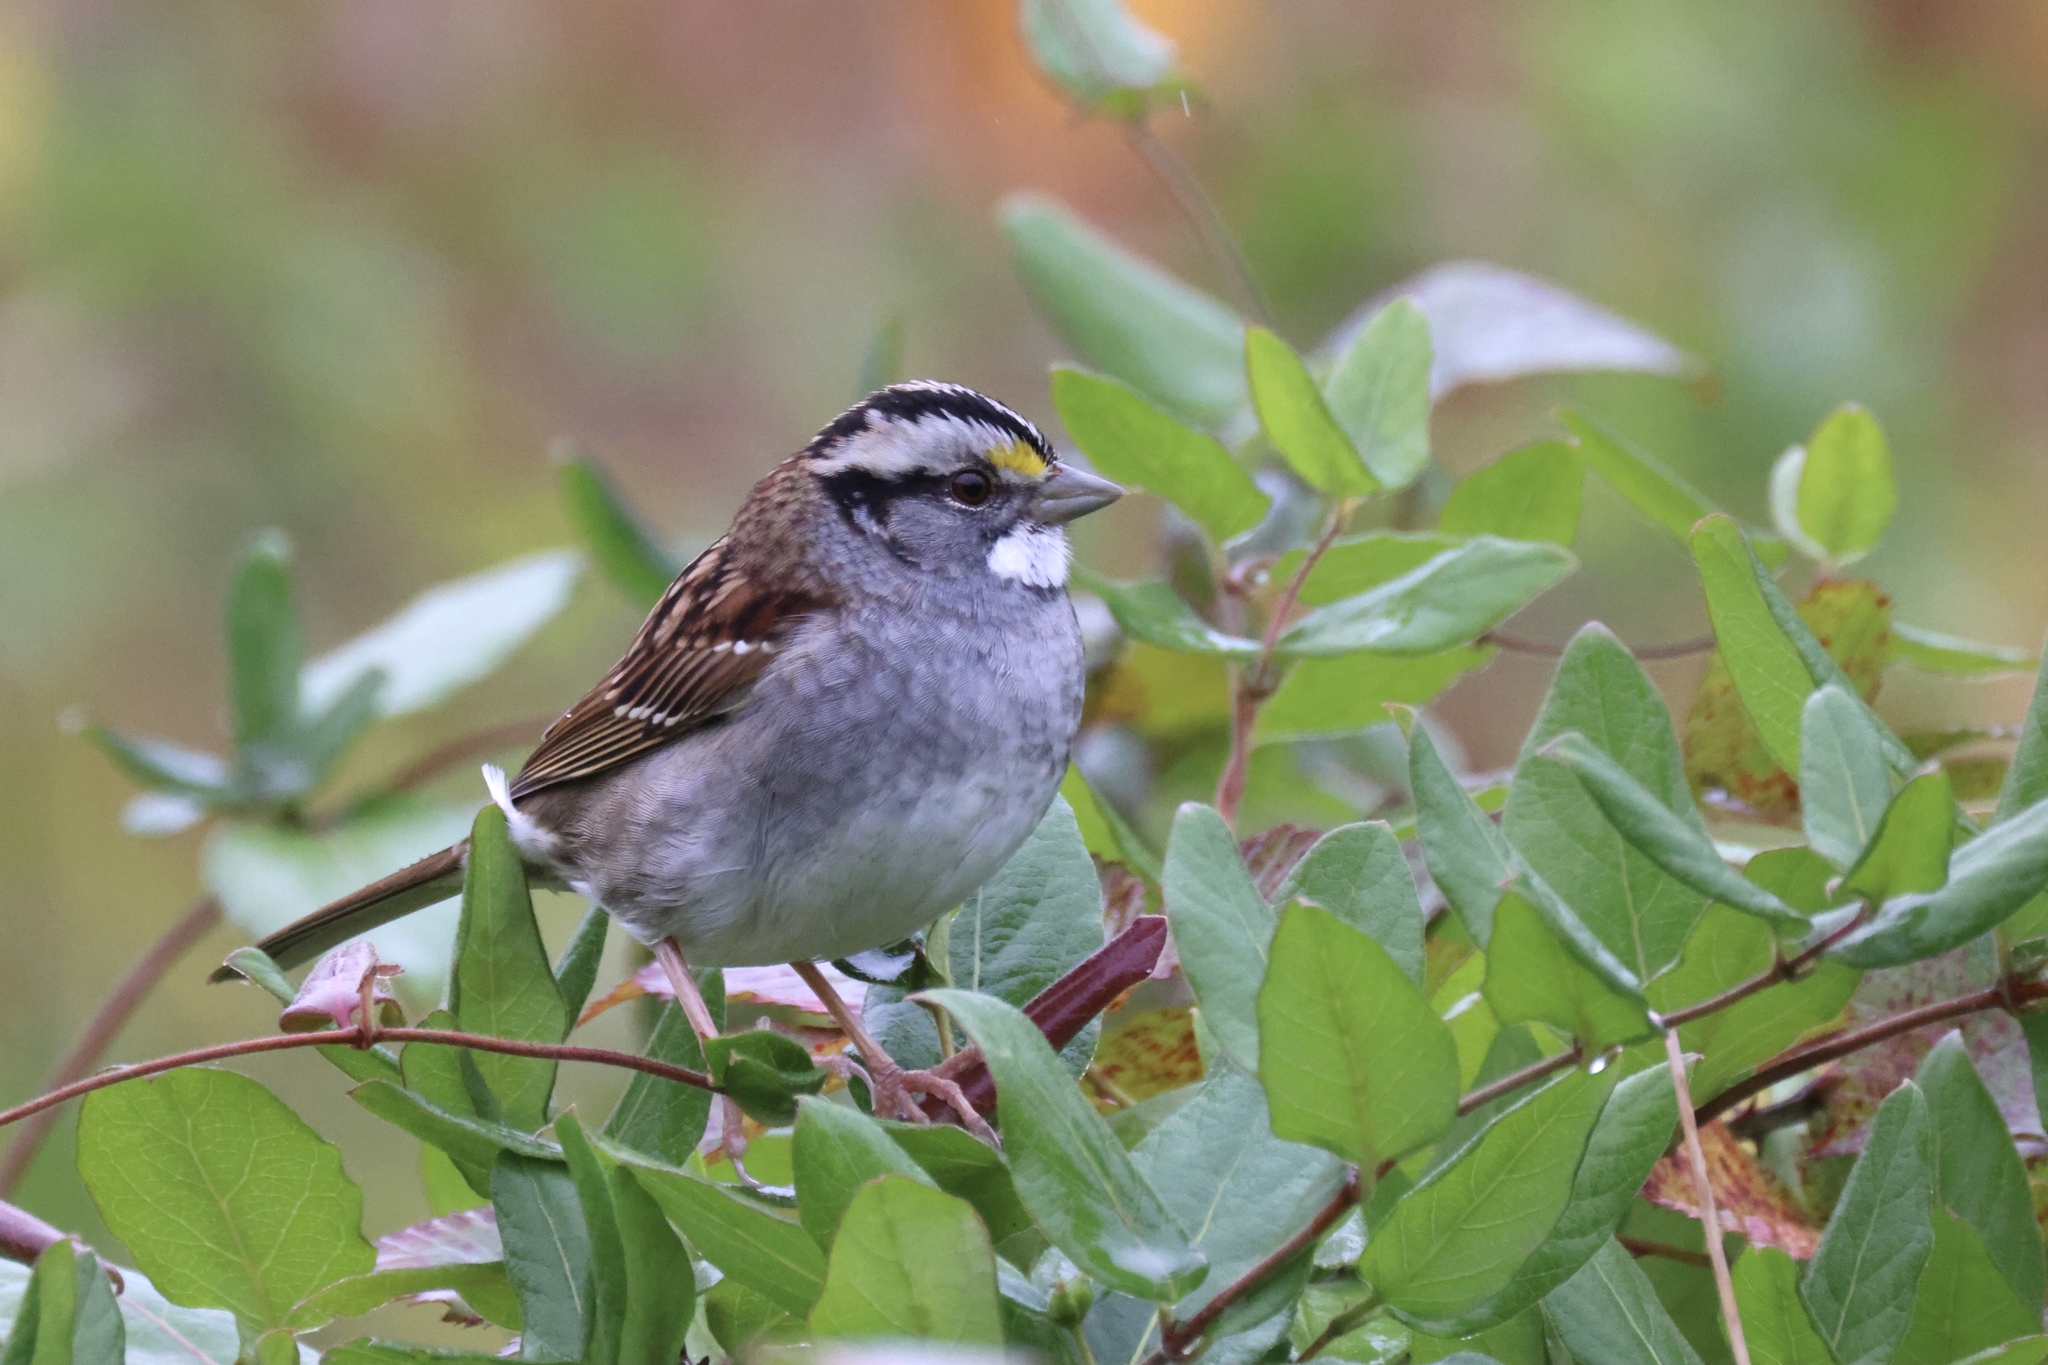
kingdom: Animalia
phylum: Chordata
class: Aves
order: Passeriformes
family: Passerellidae
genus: Zonotrichia
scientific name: Zonotrichia albicollis
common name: White-throated sparrow
